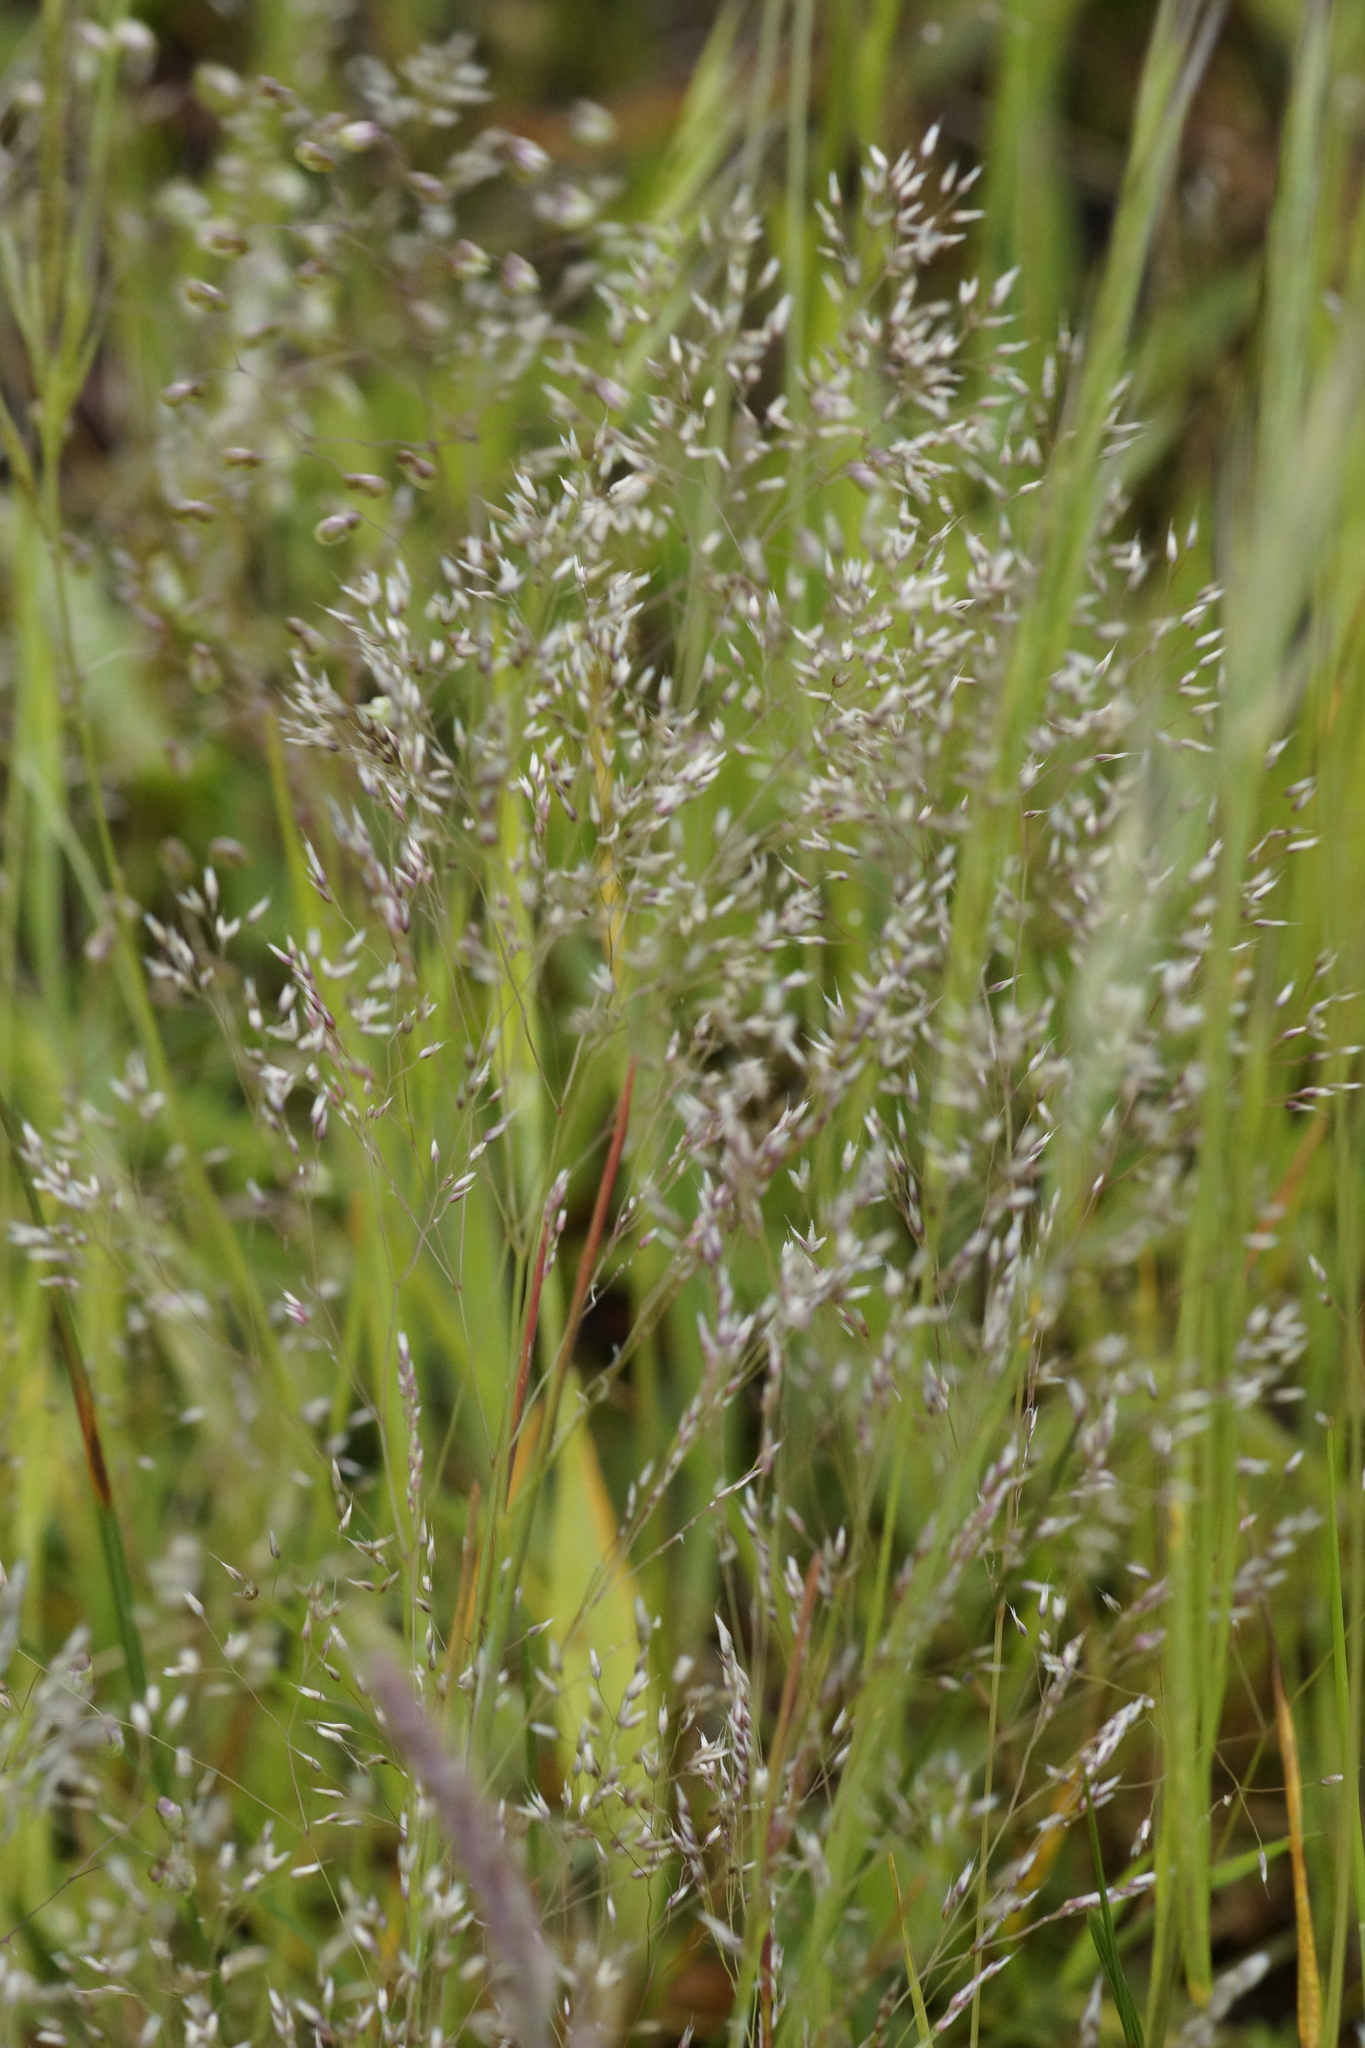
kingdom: Plantae
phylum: Tracheophyta
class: Liliopsida
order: Poales
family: Poaceae
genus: Aira
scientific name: Aira cupaniana
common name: Silver hairgrass
